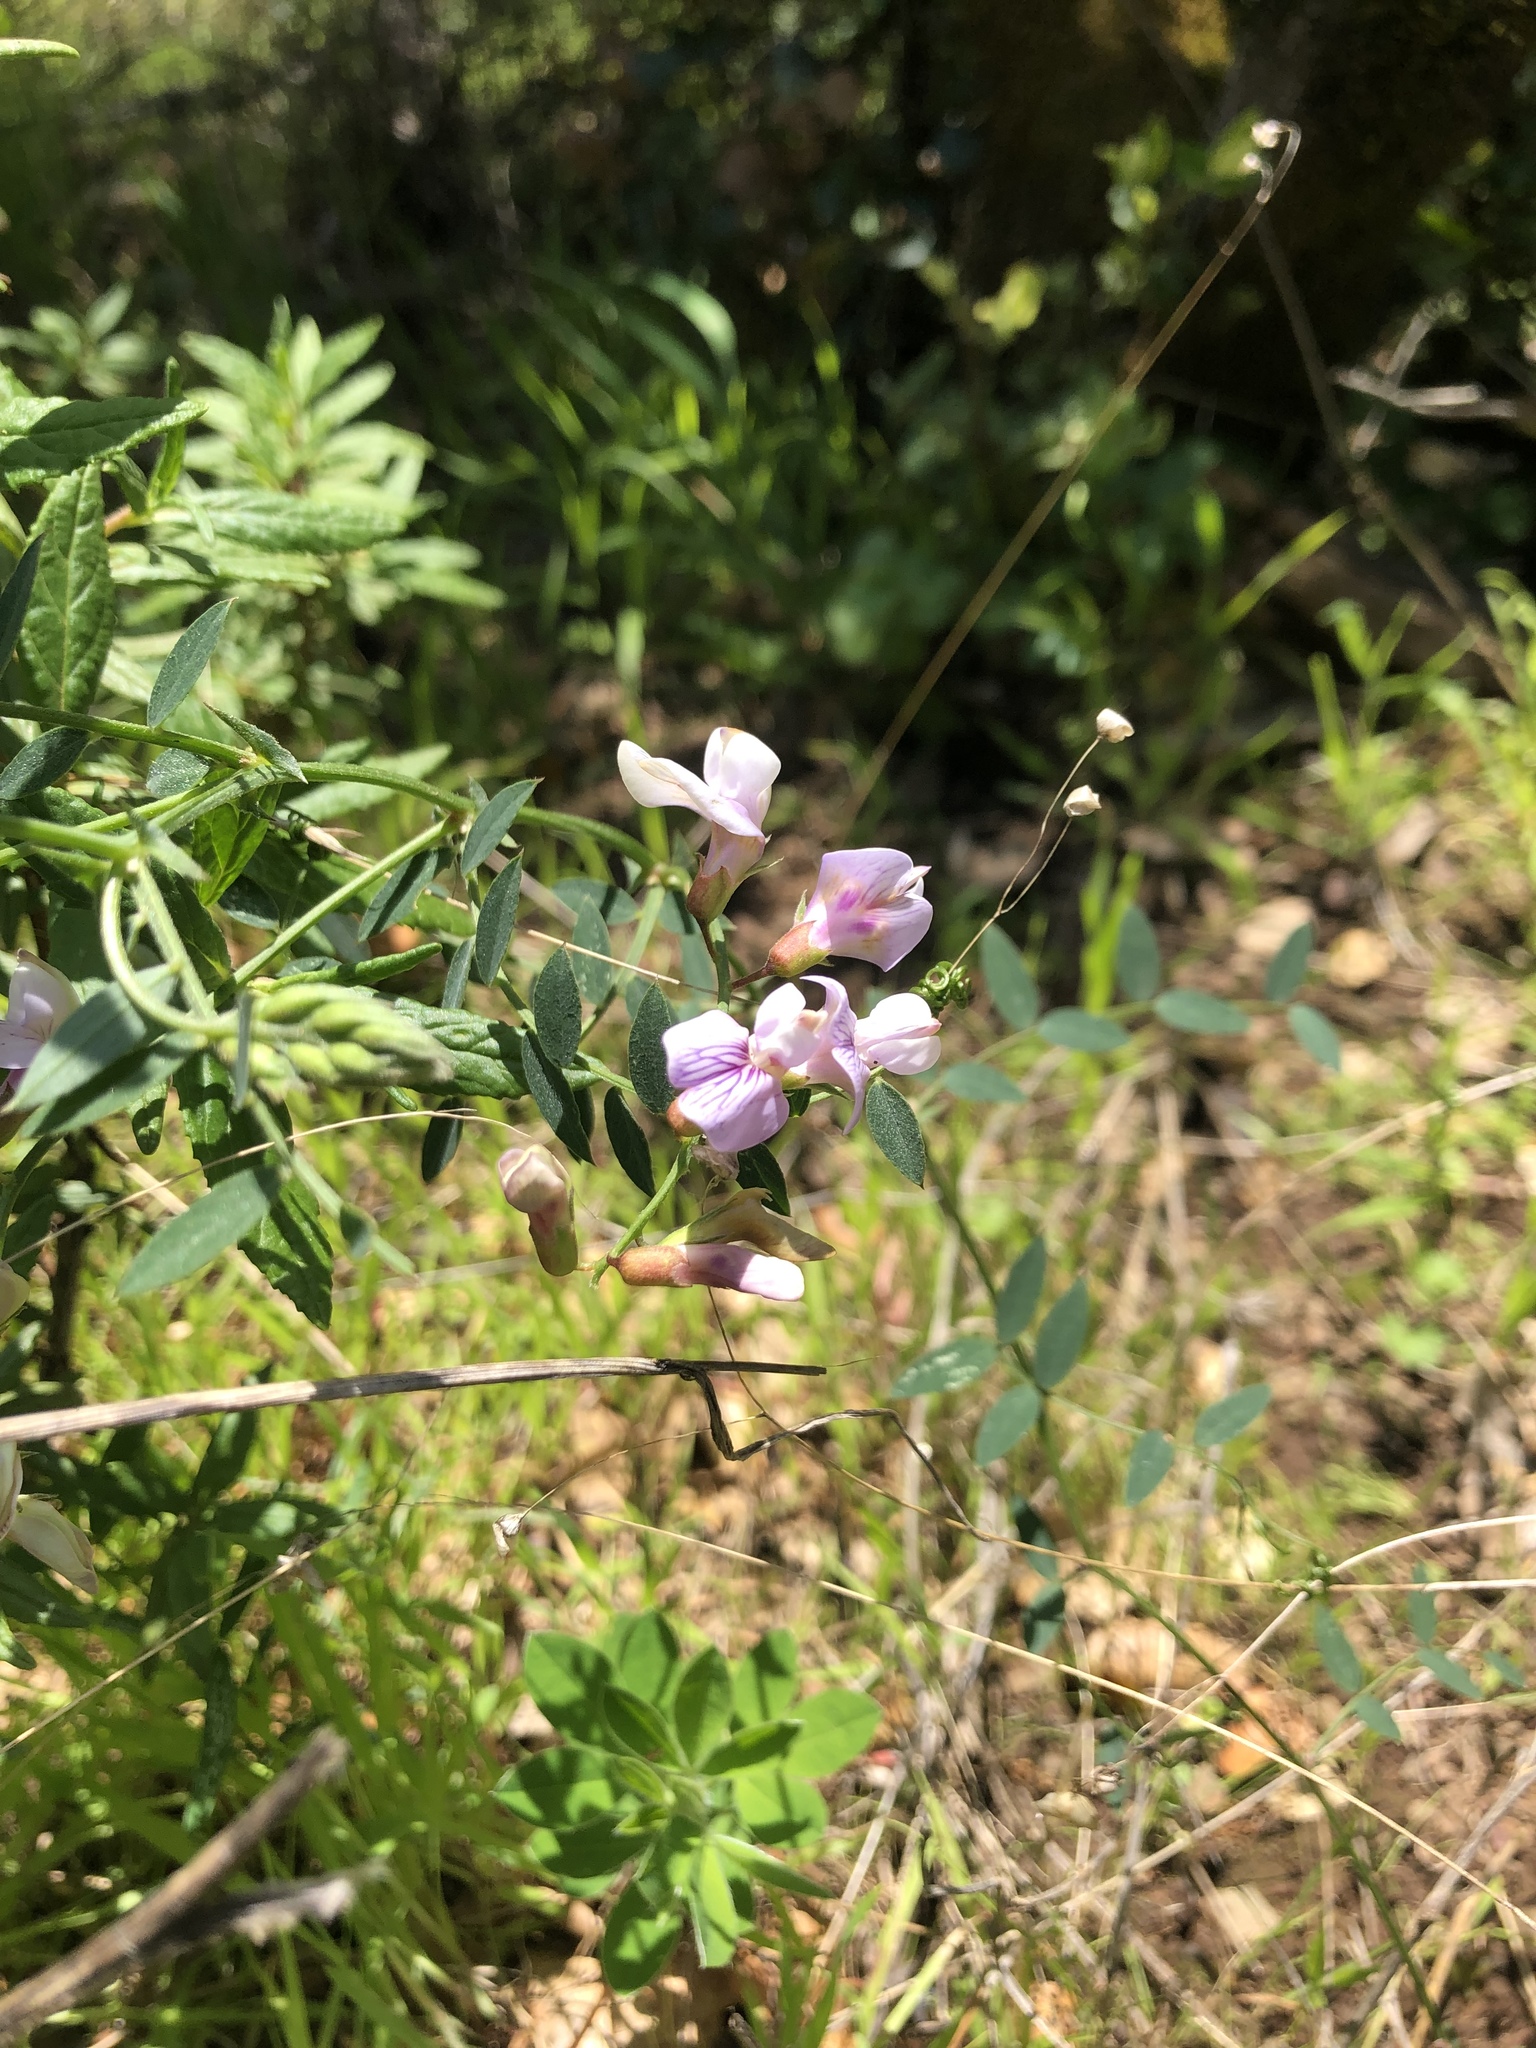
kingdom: Plantae
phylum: Tracheophyta
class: Magnoliopsida
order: Fabales
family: Fabaceae
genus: Lathyrus
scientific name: Lathyrus vestitus
